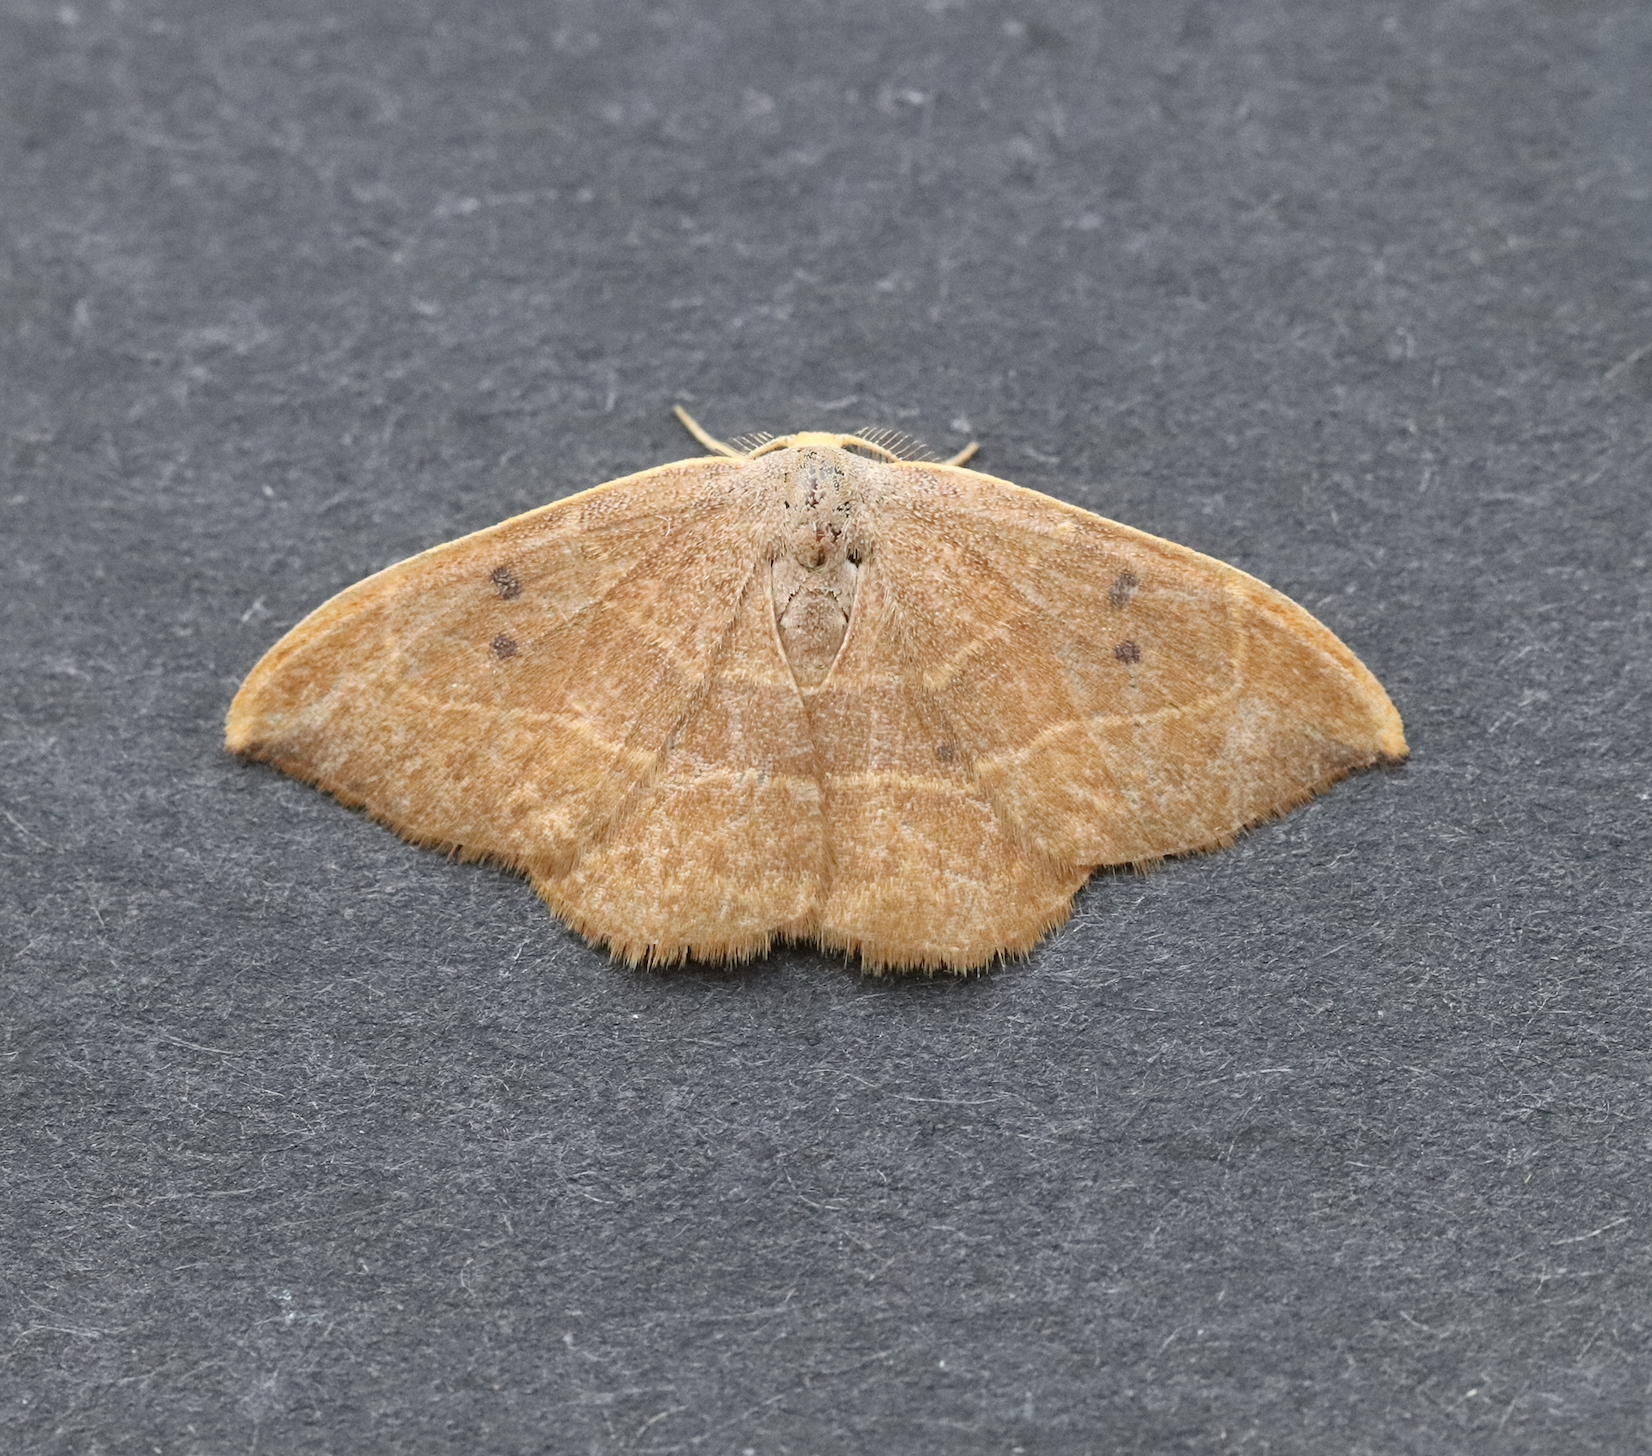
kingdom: Animalia
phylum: Arthropoda
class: Insecta
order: Lepidoptera
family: Drepanidae
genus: Watsonalla
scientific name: Watsonalla binaria
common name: Oak hook-tip
